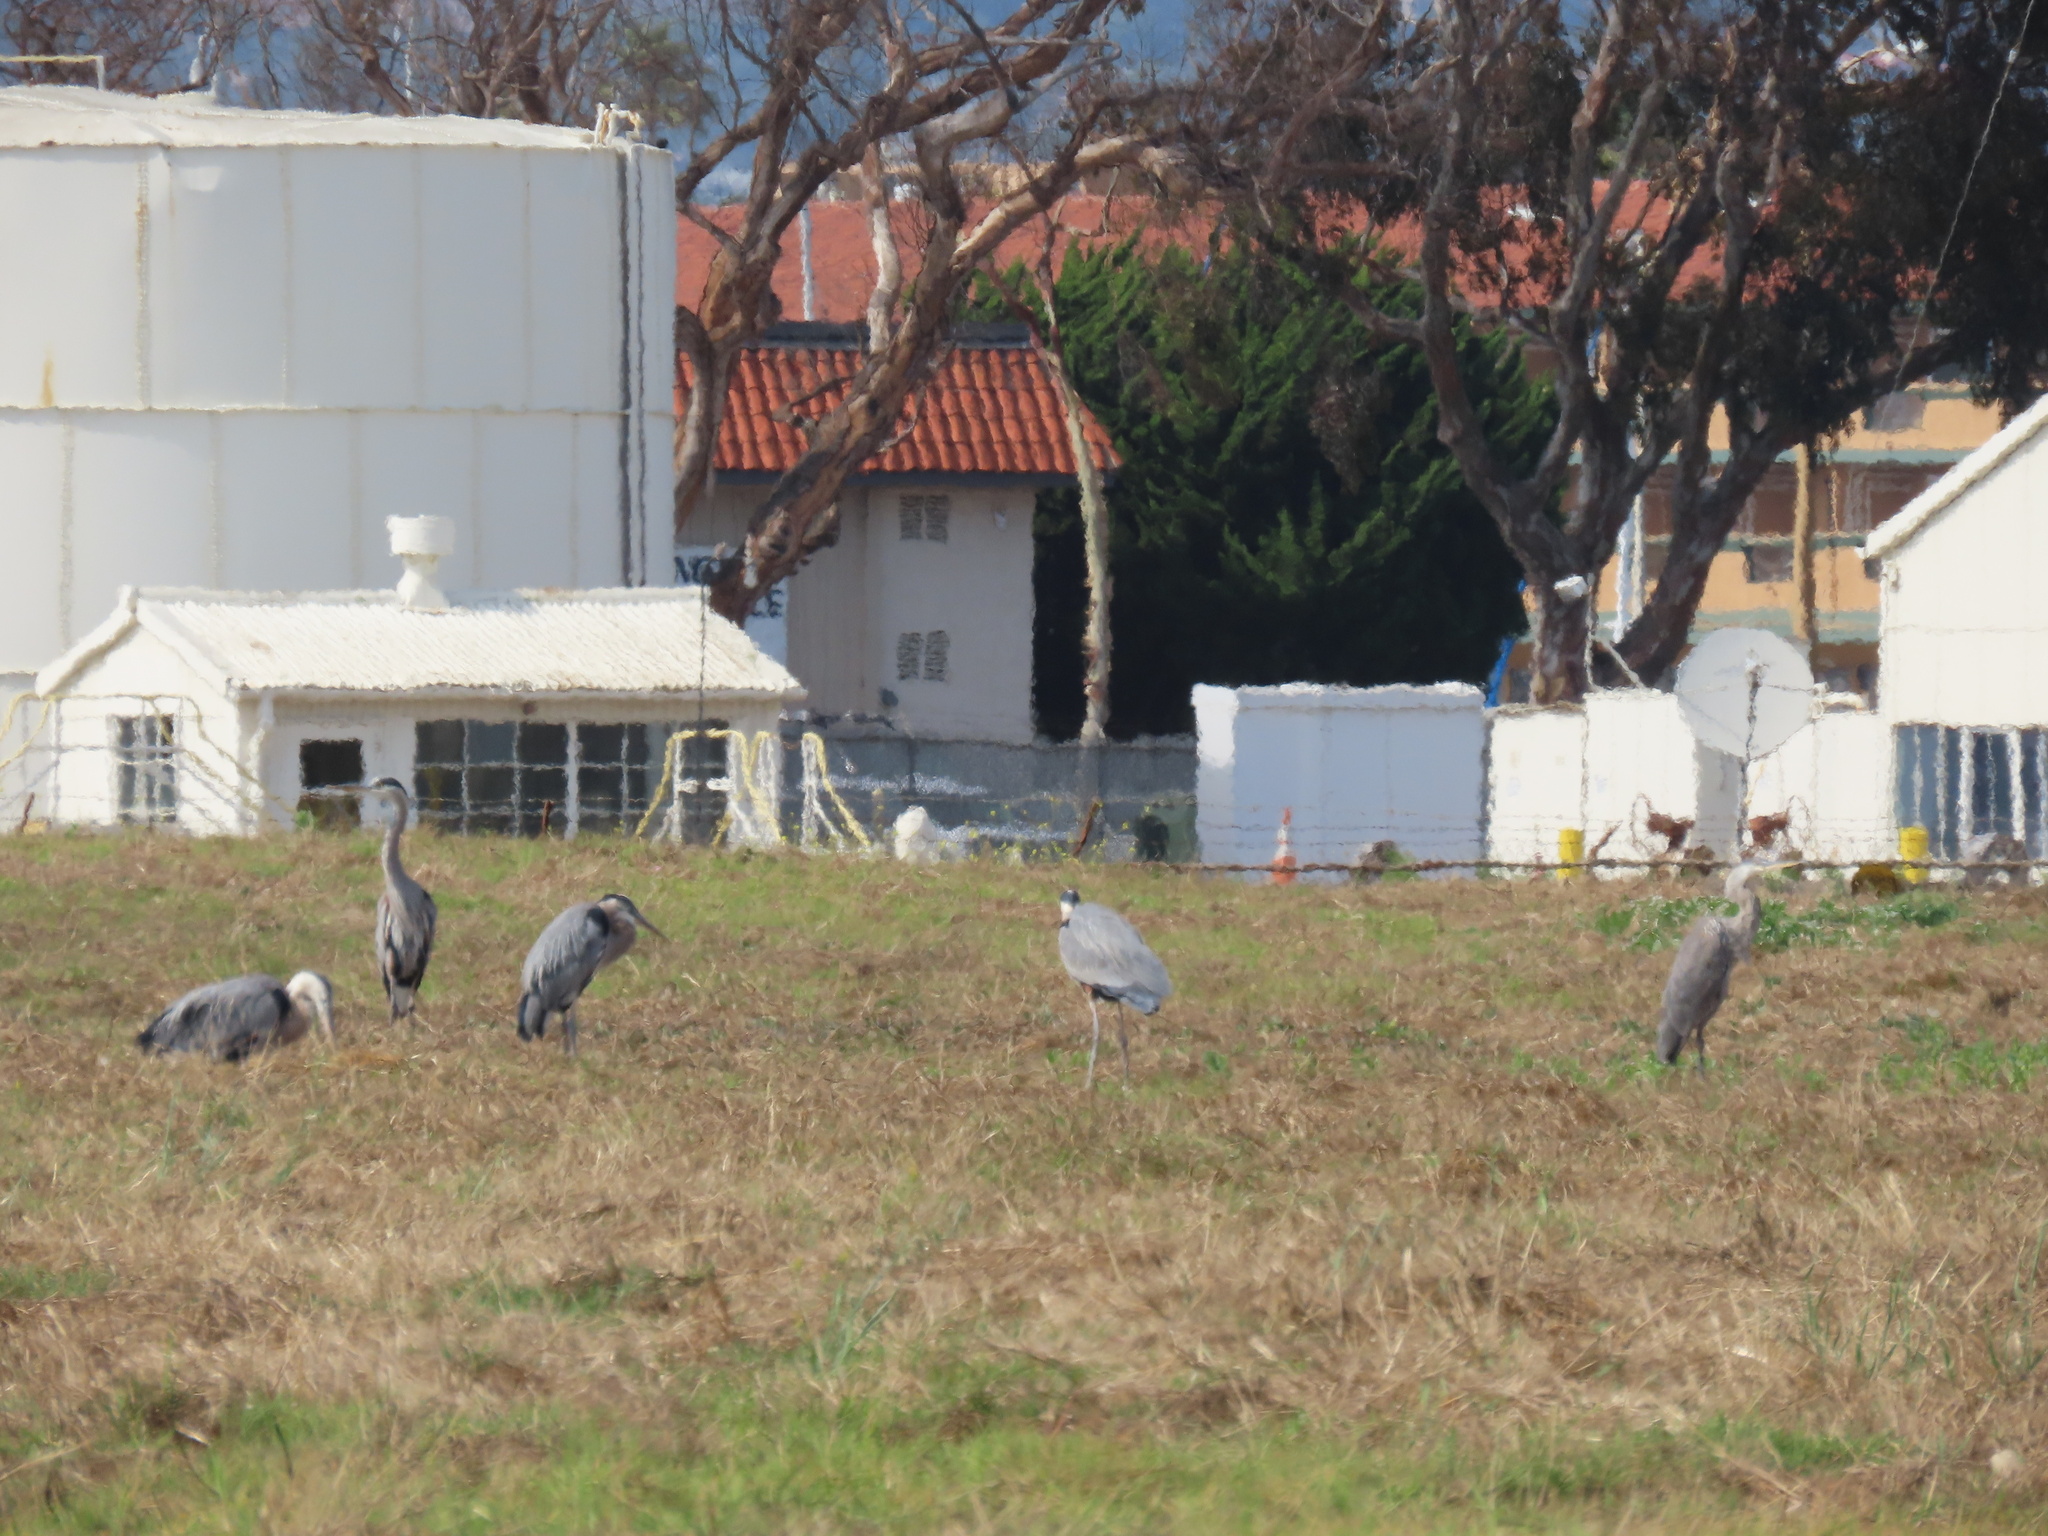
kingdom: Animalia
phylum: Chordata
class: Aves
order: Pelecaniformes
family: Ardeidae
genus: Ardea
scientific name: Ardea herodias
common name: Great blue heron
